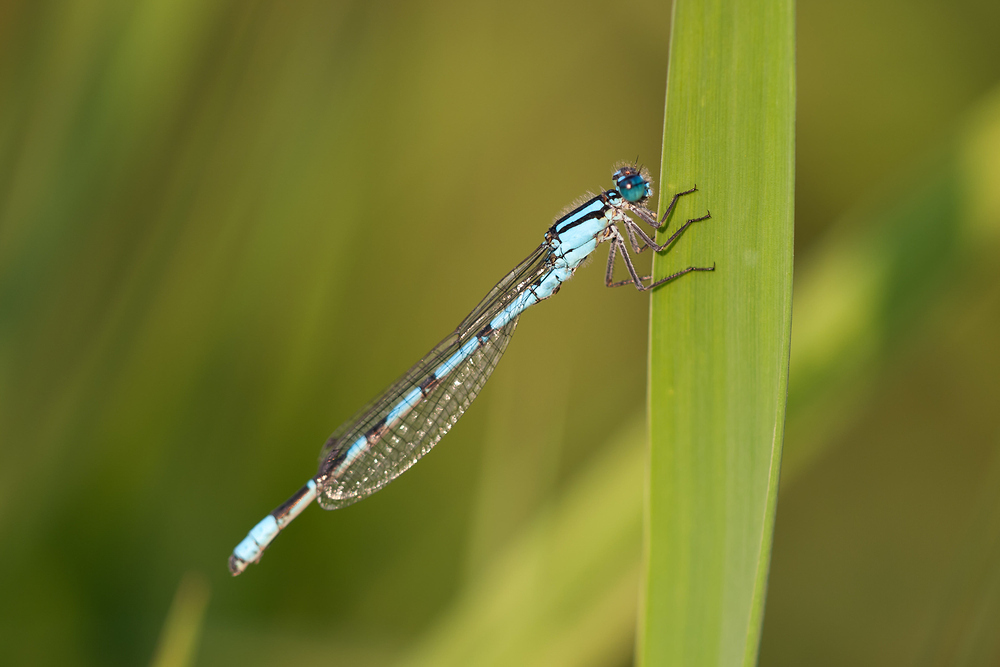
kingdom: Animalia
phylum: Arthropoda
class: Insecta
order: Odonata
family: Coenagrionidae
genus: Enallagma
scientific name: Enallagma cyathigerum
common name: Common blue damselfly
